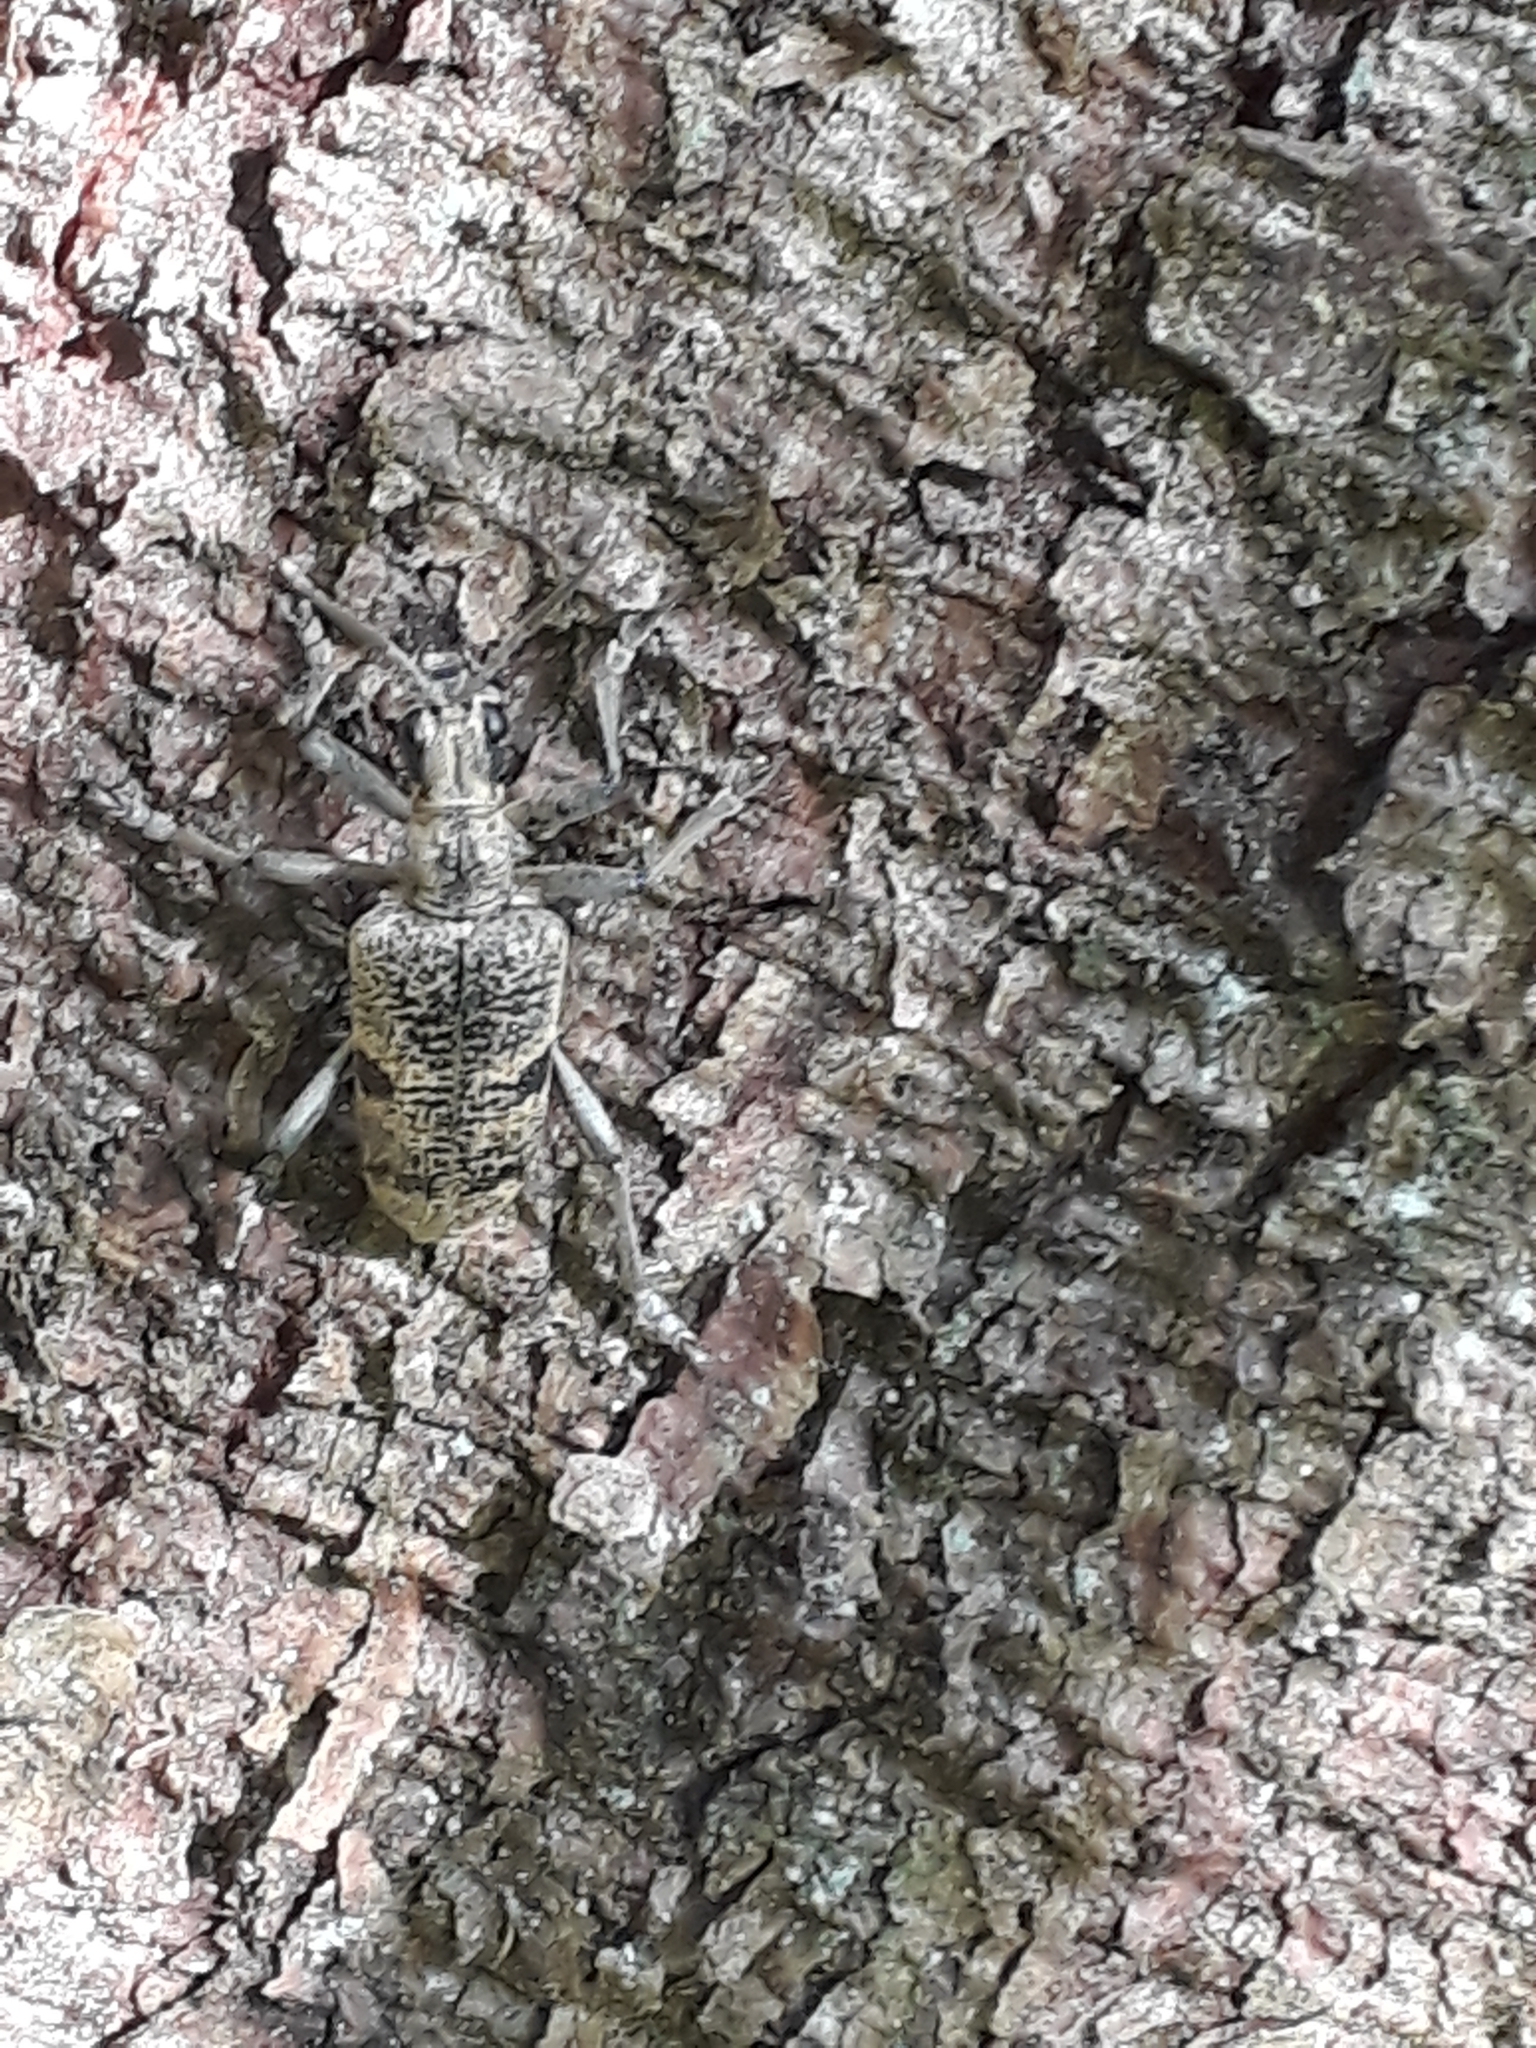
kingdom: Animalia
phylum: Arthropoda
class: Insecta
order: Coleoptera
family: Cerambycidae
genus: Rhagium
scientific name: Rhagium mordax
